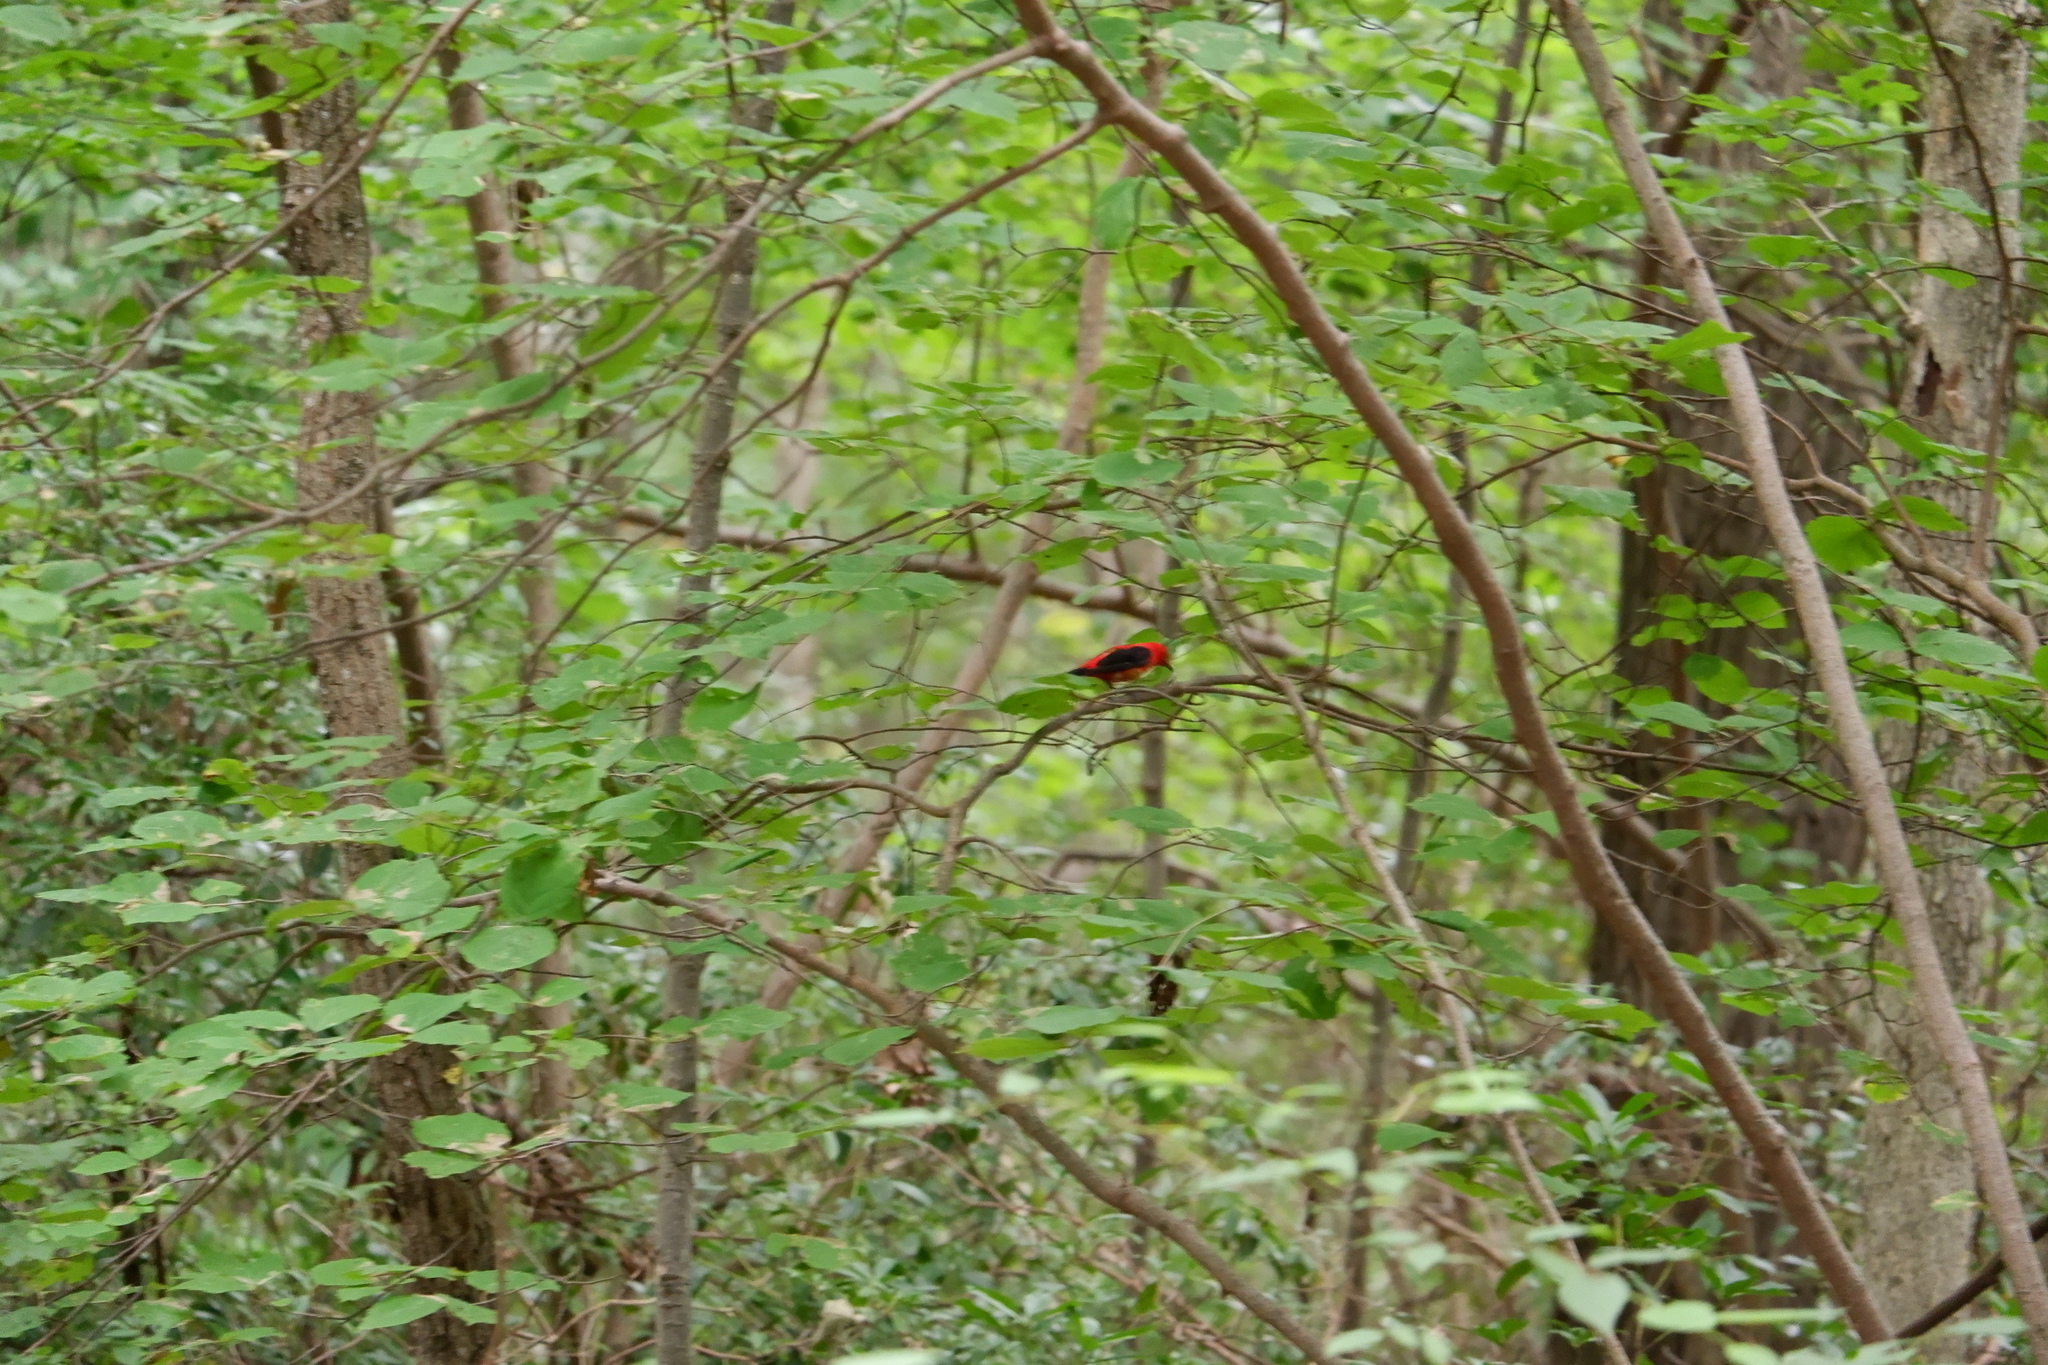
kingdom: Animalia
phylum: Chordata
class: Aves
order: Passeriformes
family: Cardinalidae
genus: Piranga
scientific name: Piranga olivacea
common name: Scarlet tanager
